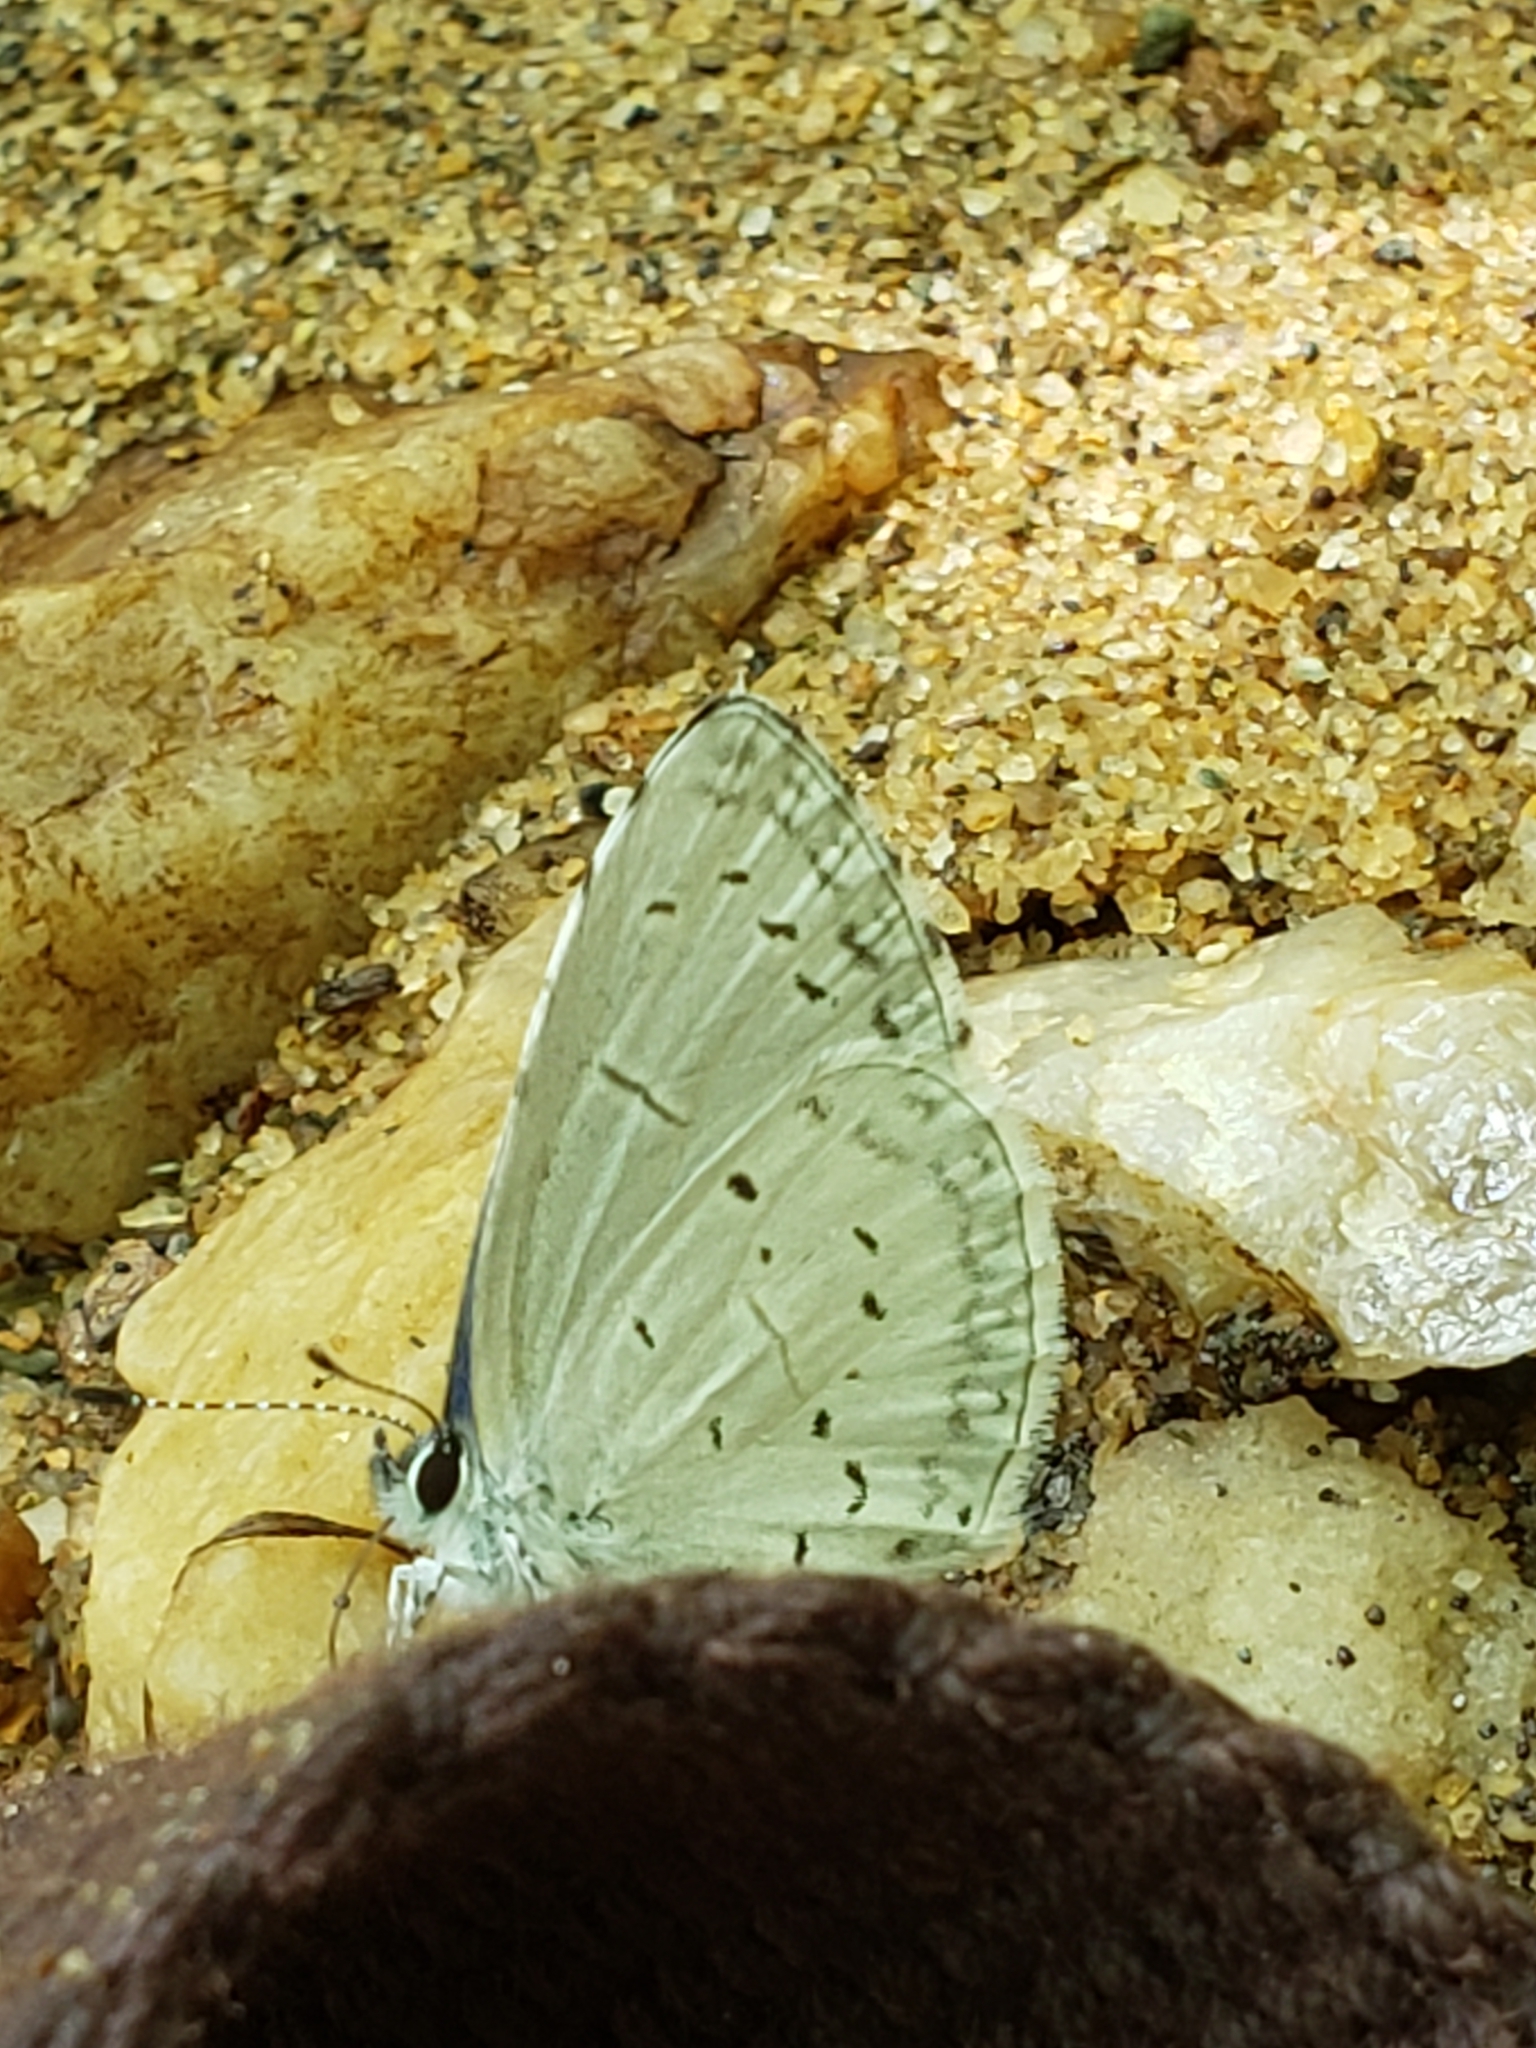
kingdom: Animalia
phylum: Arthropoda
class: Insecta
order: Lepidoptera
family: Lycaenidae
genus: Cyaniris
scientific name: Cyaniris neglecta
